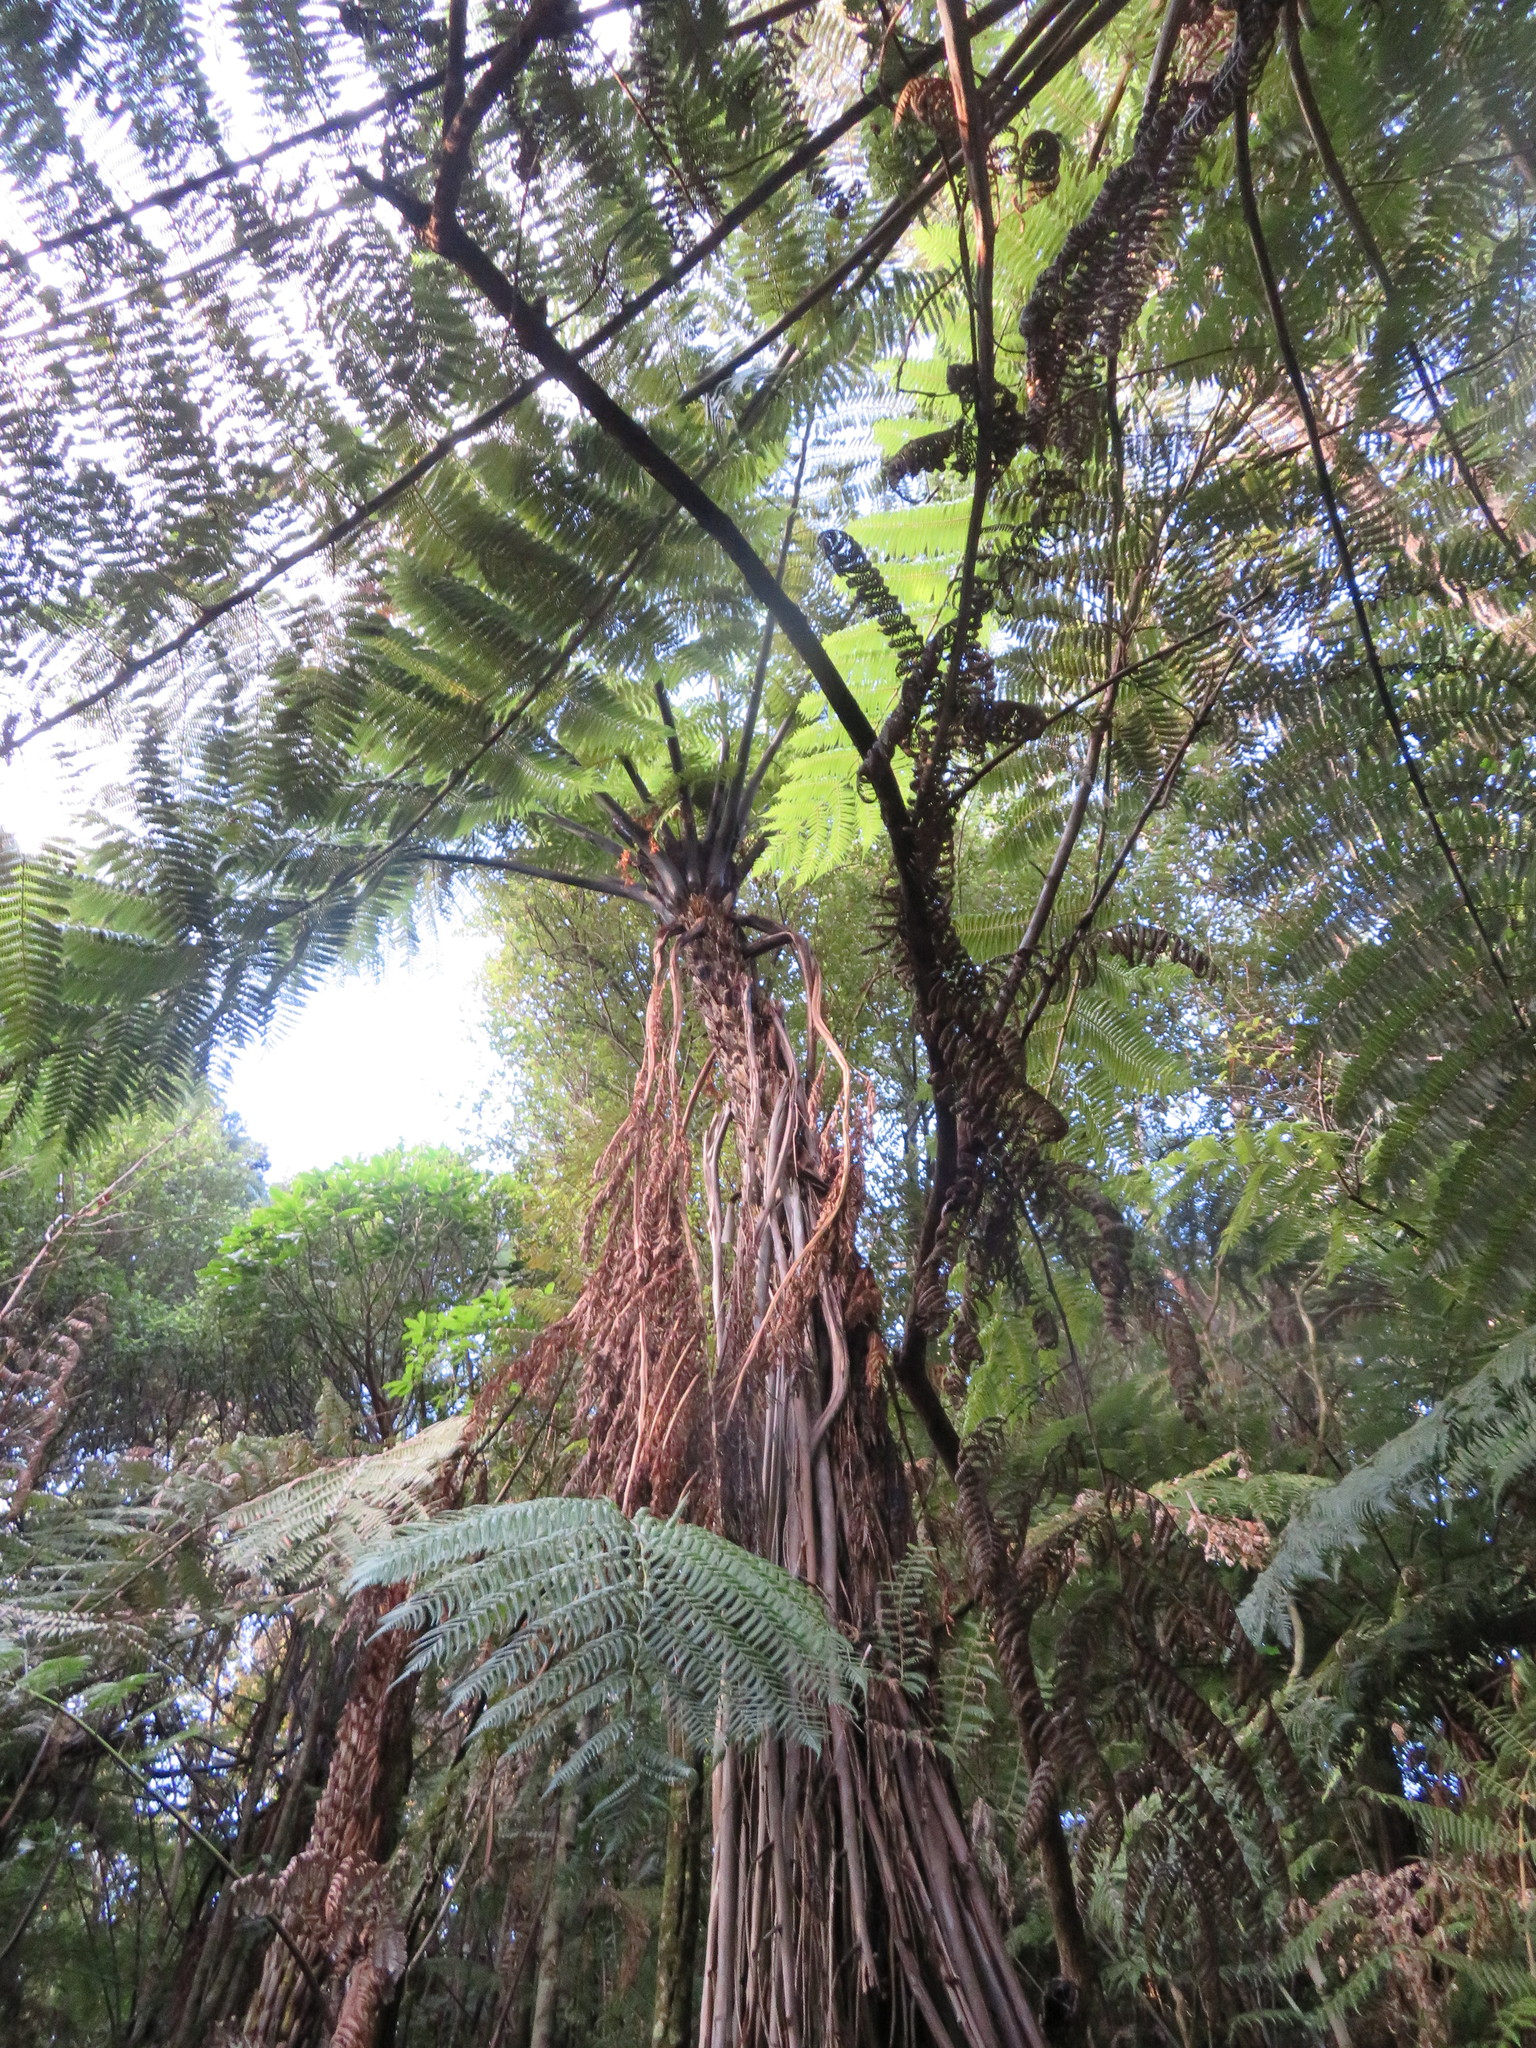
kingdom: Plantae
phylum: Tracheophyta
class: Polypodiopsida
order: Cyatheales
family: Cyatheaceae
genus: Sphaeropteris
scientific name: Sphaeropteris medullaris
